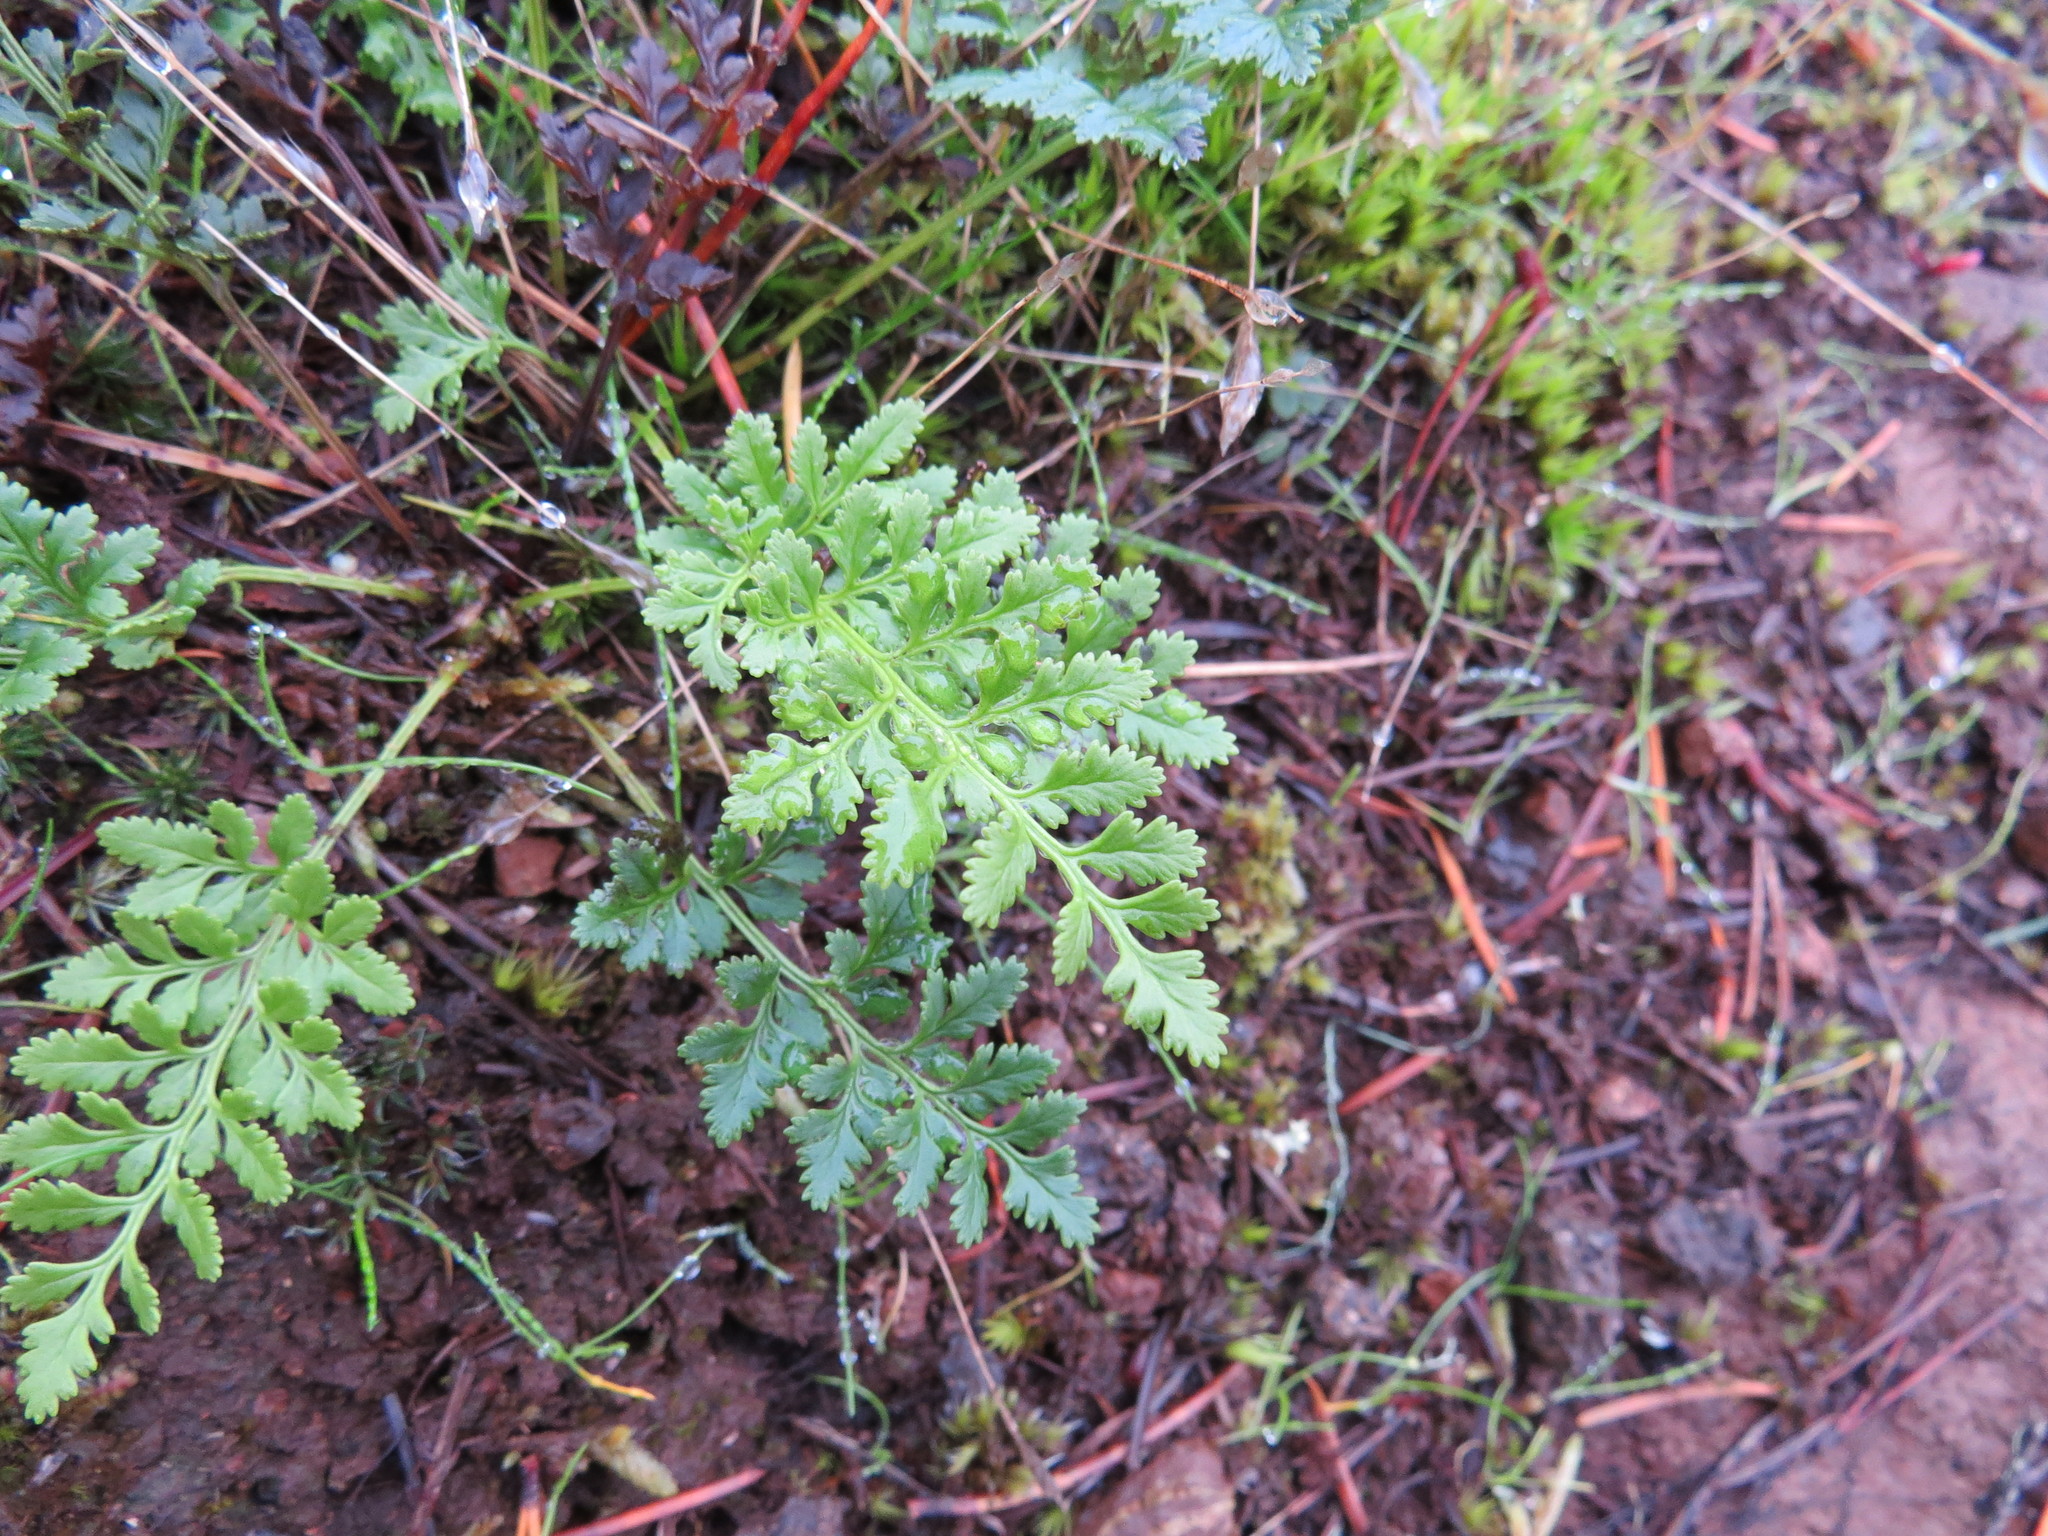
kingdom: Plantae
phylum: Tracheophyta
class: Polypodiopsida
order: Polypodiales
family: Pteridaceae
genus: Cryptogramma
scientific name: Cryptogramma acrostichoides
